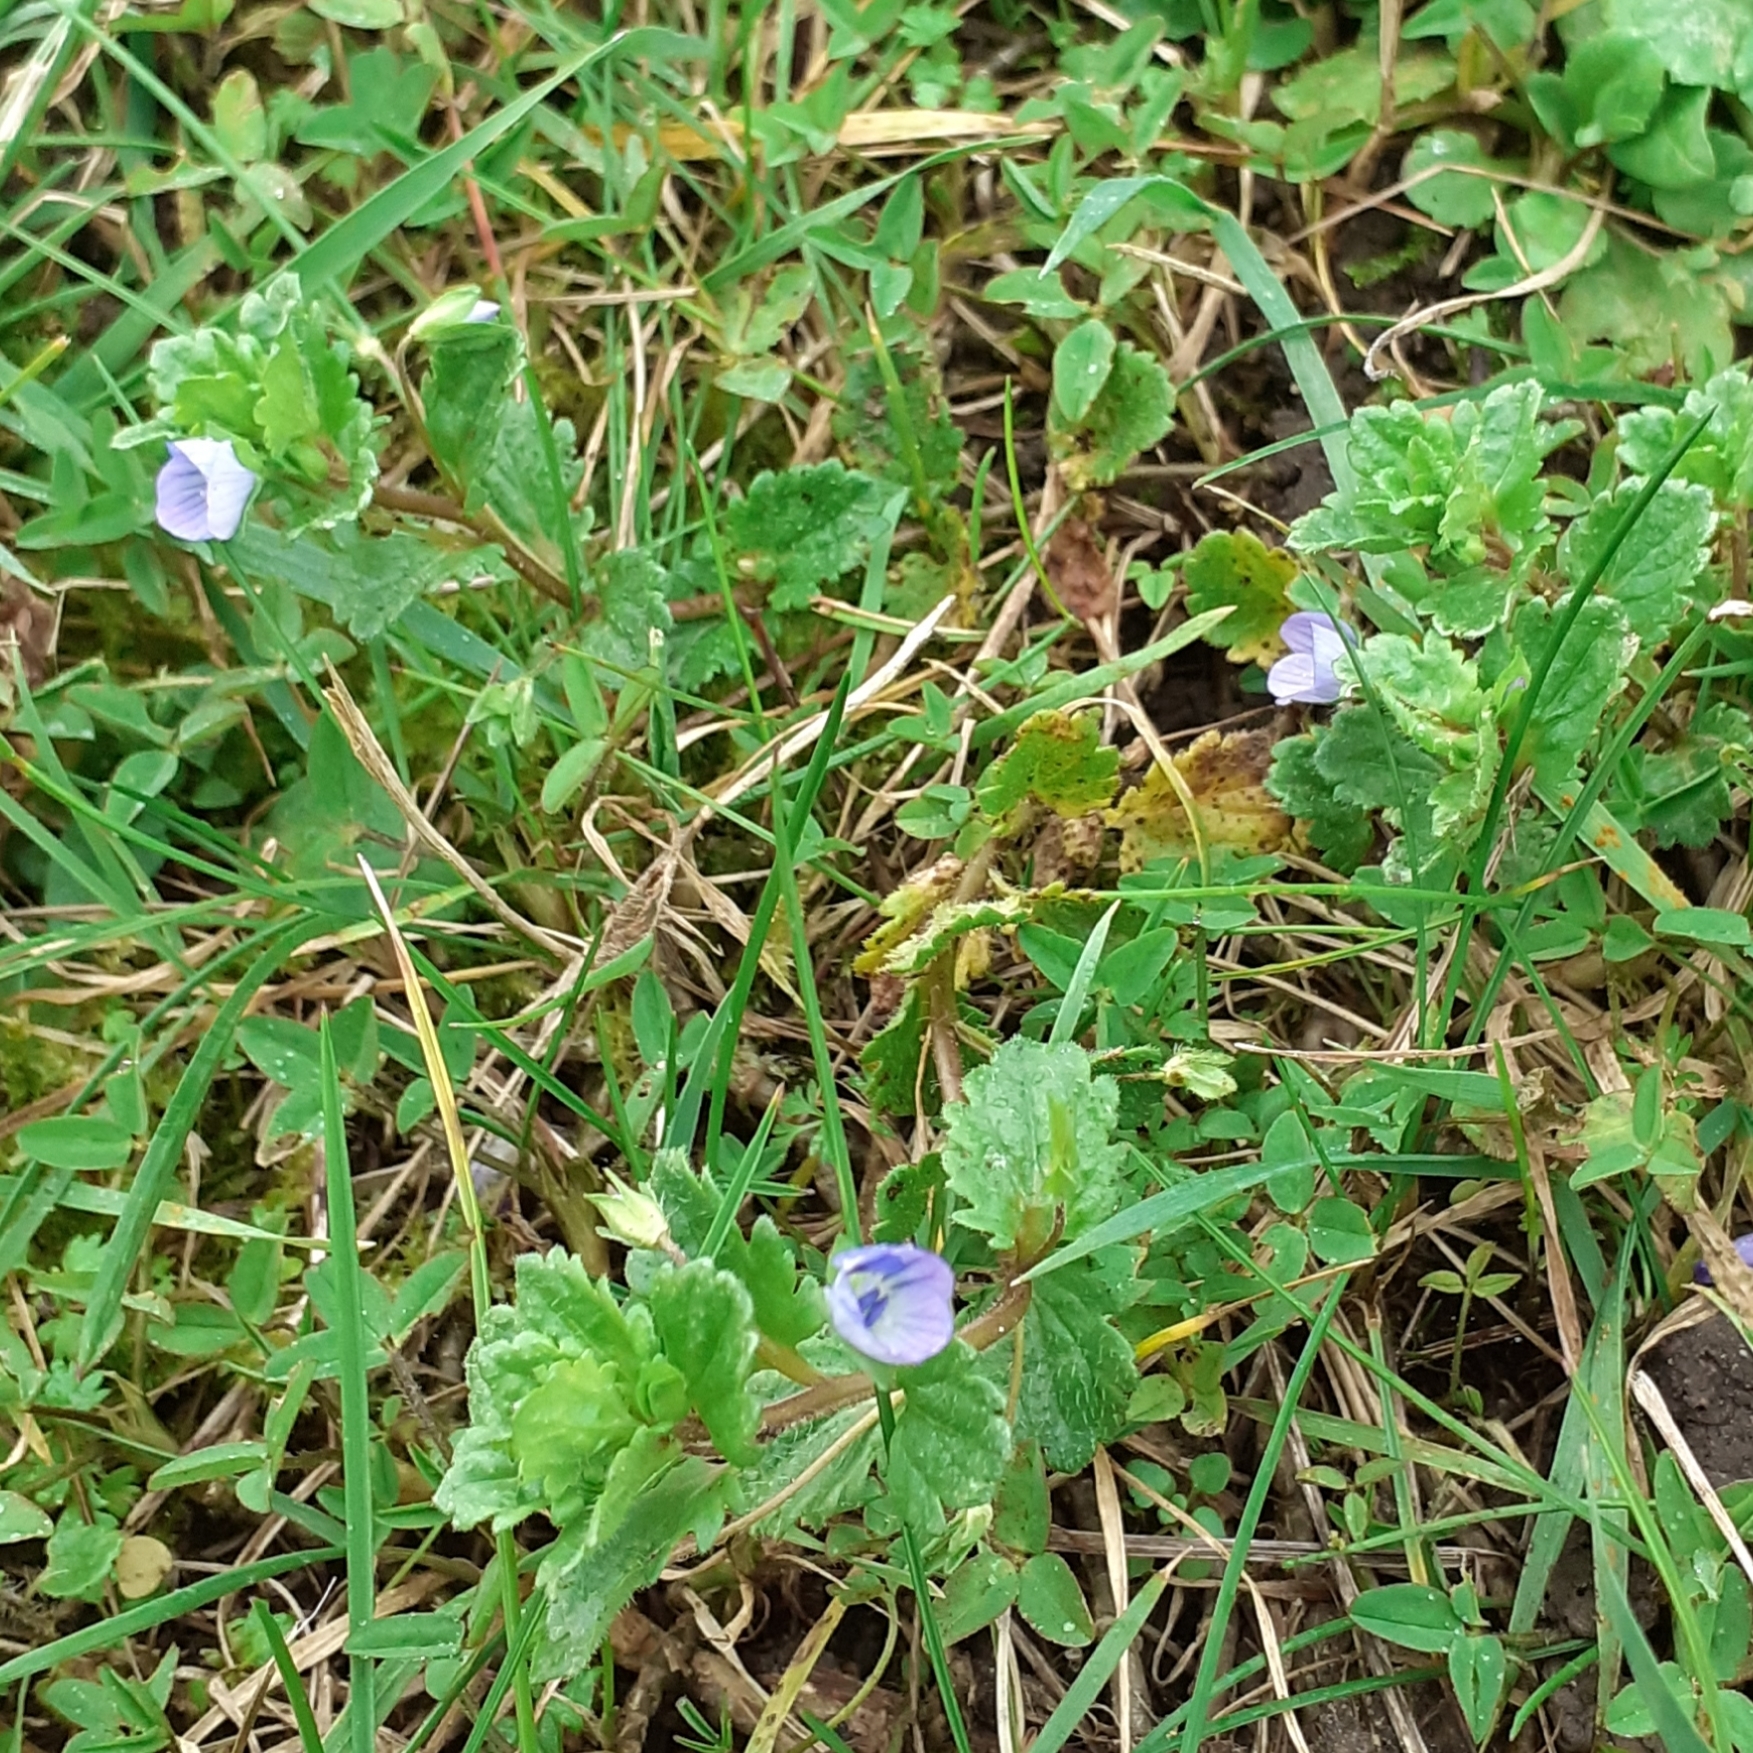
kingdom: Plantae
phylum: Tracheophyta
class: Magnoliopsida
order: Lamiales
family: Plantaginaceae
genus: Veronica
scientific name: Veronica persica
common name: Common field-speedwell
